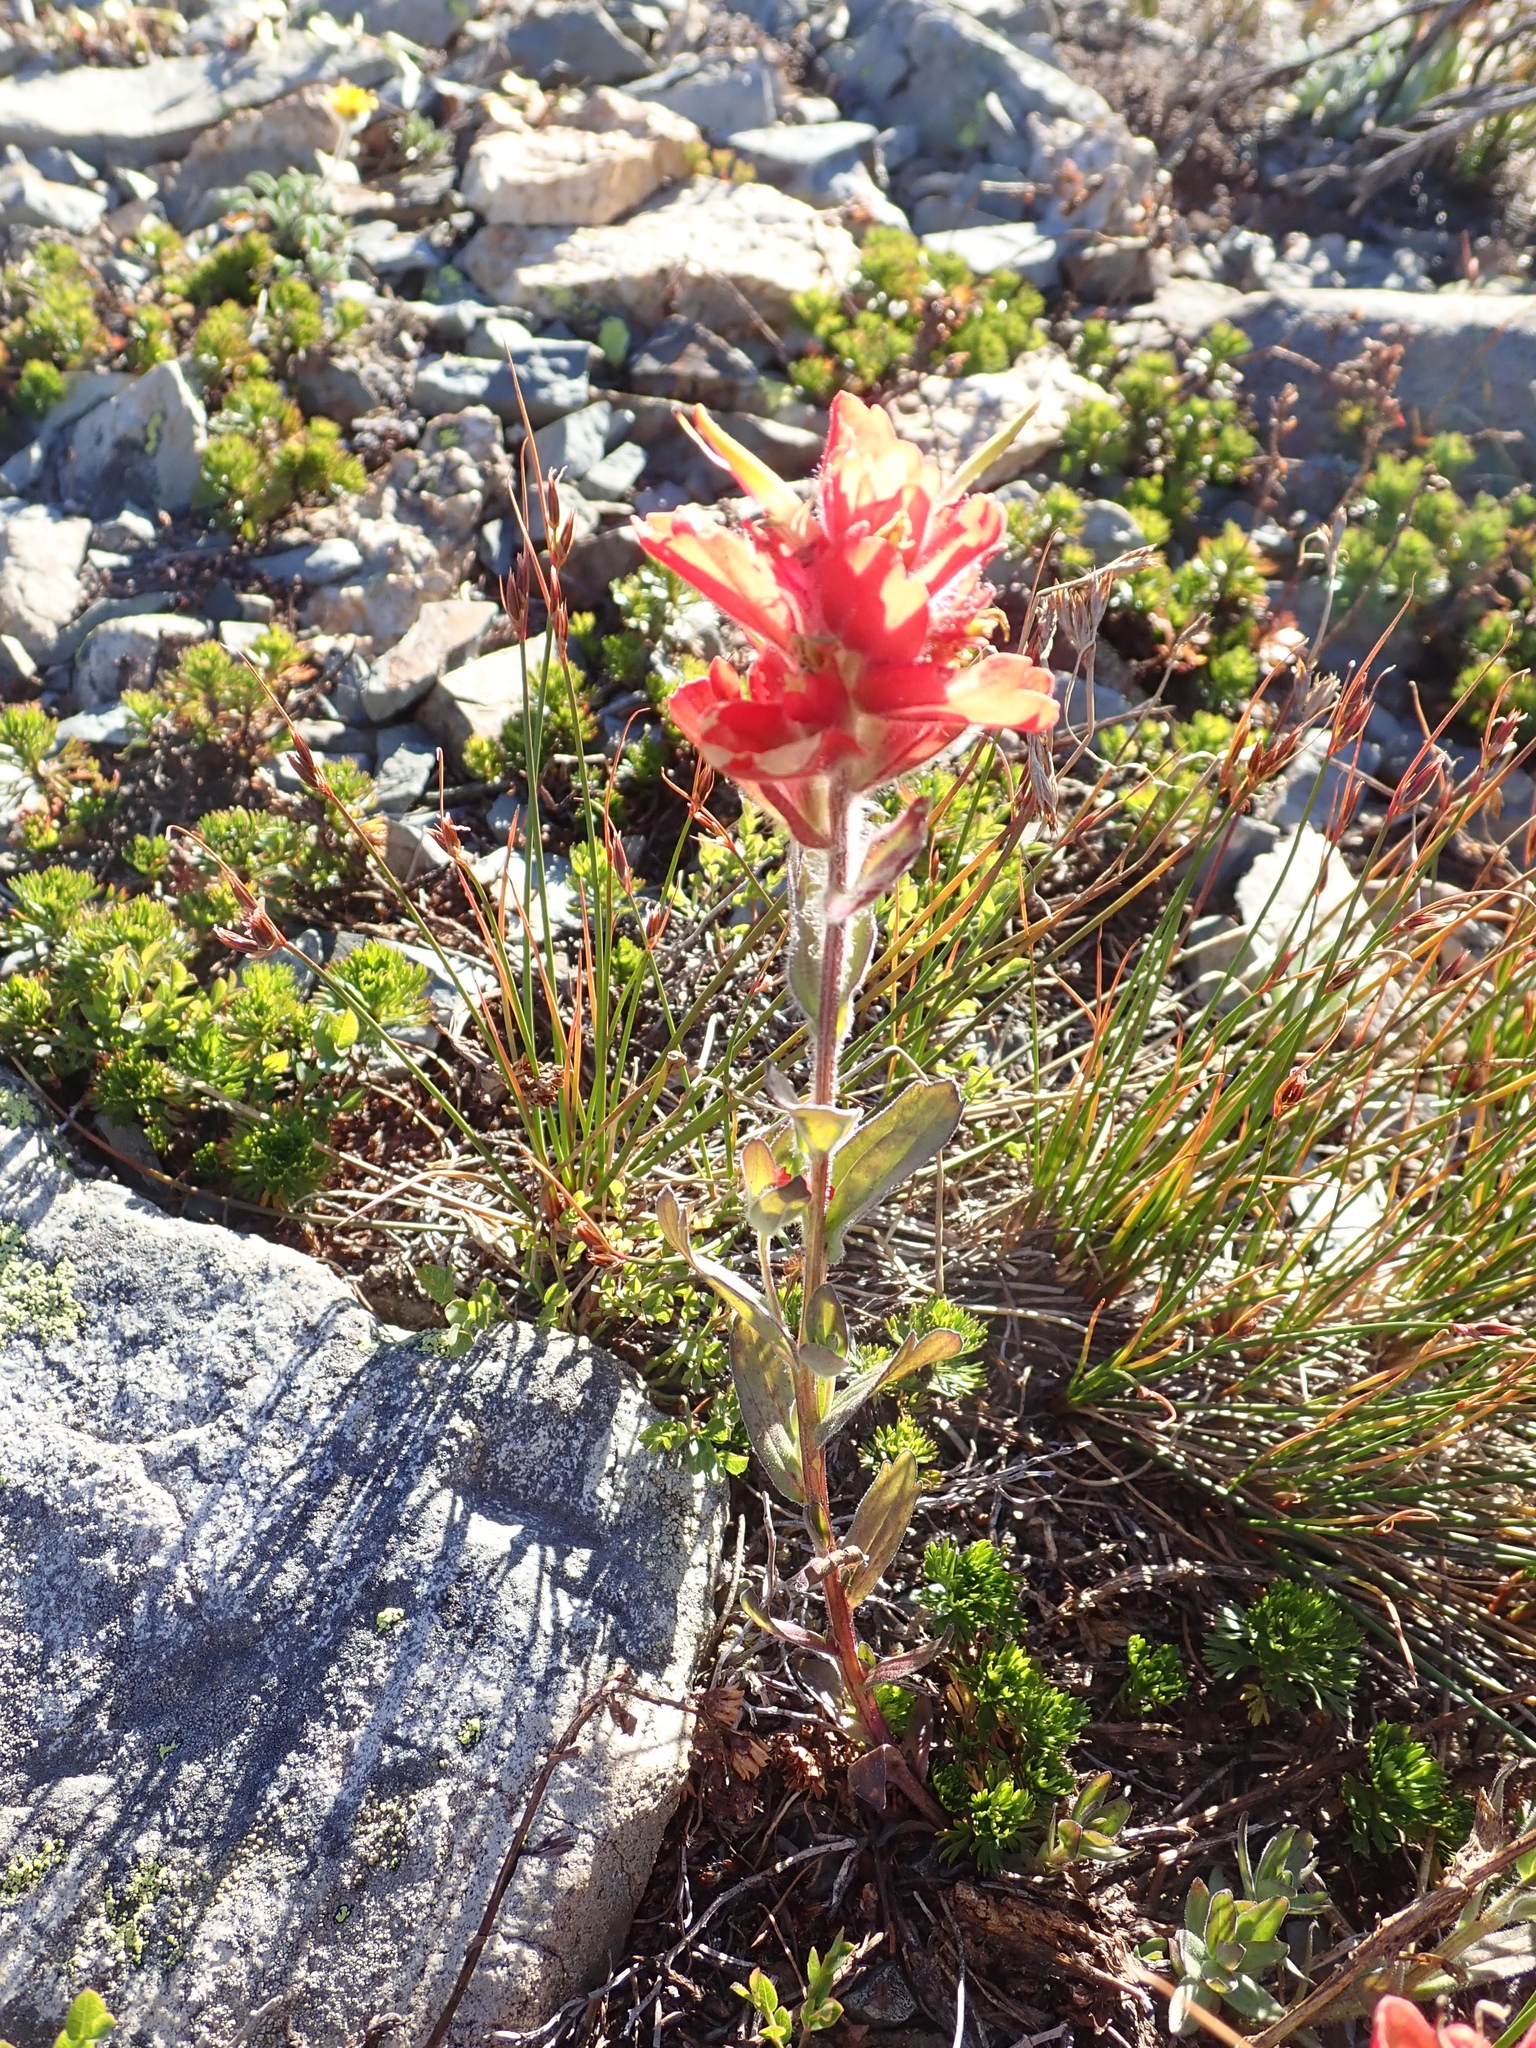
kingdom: Plantae
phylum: Tracheophyta
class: Magnoliopsida
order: Lamiales
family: Orobanchaceae
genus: Castilleja
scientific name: Castilleja elmeri
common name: Elmer's paintbrush
